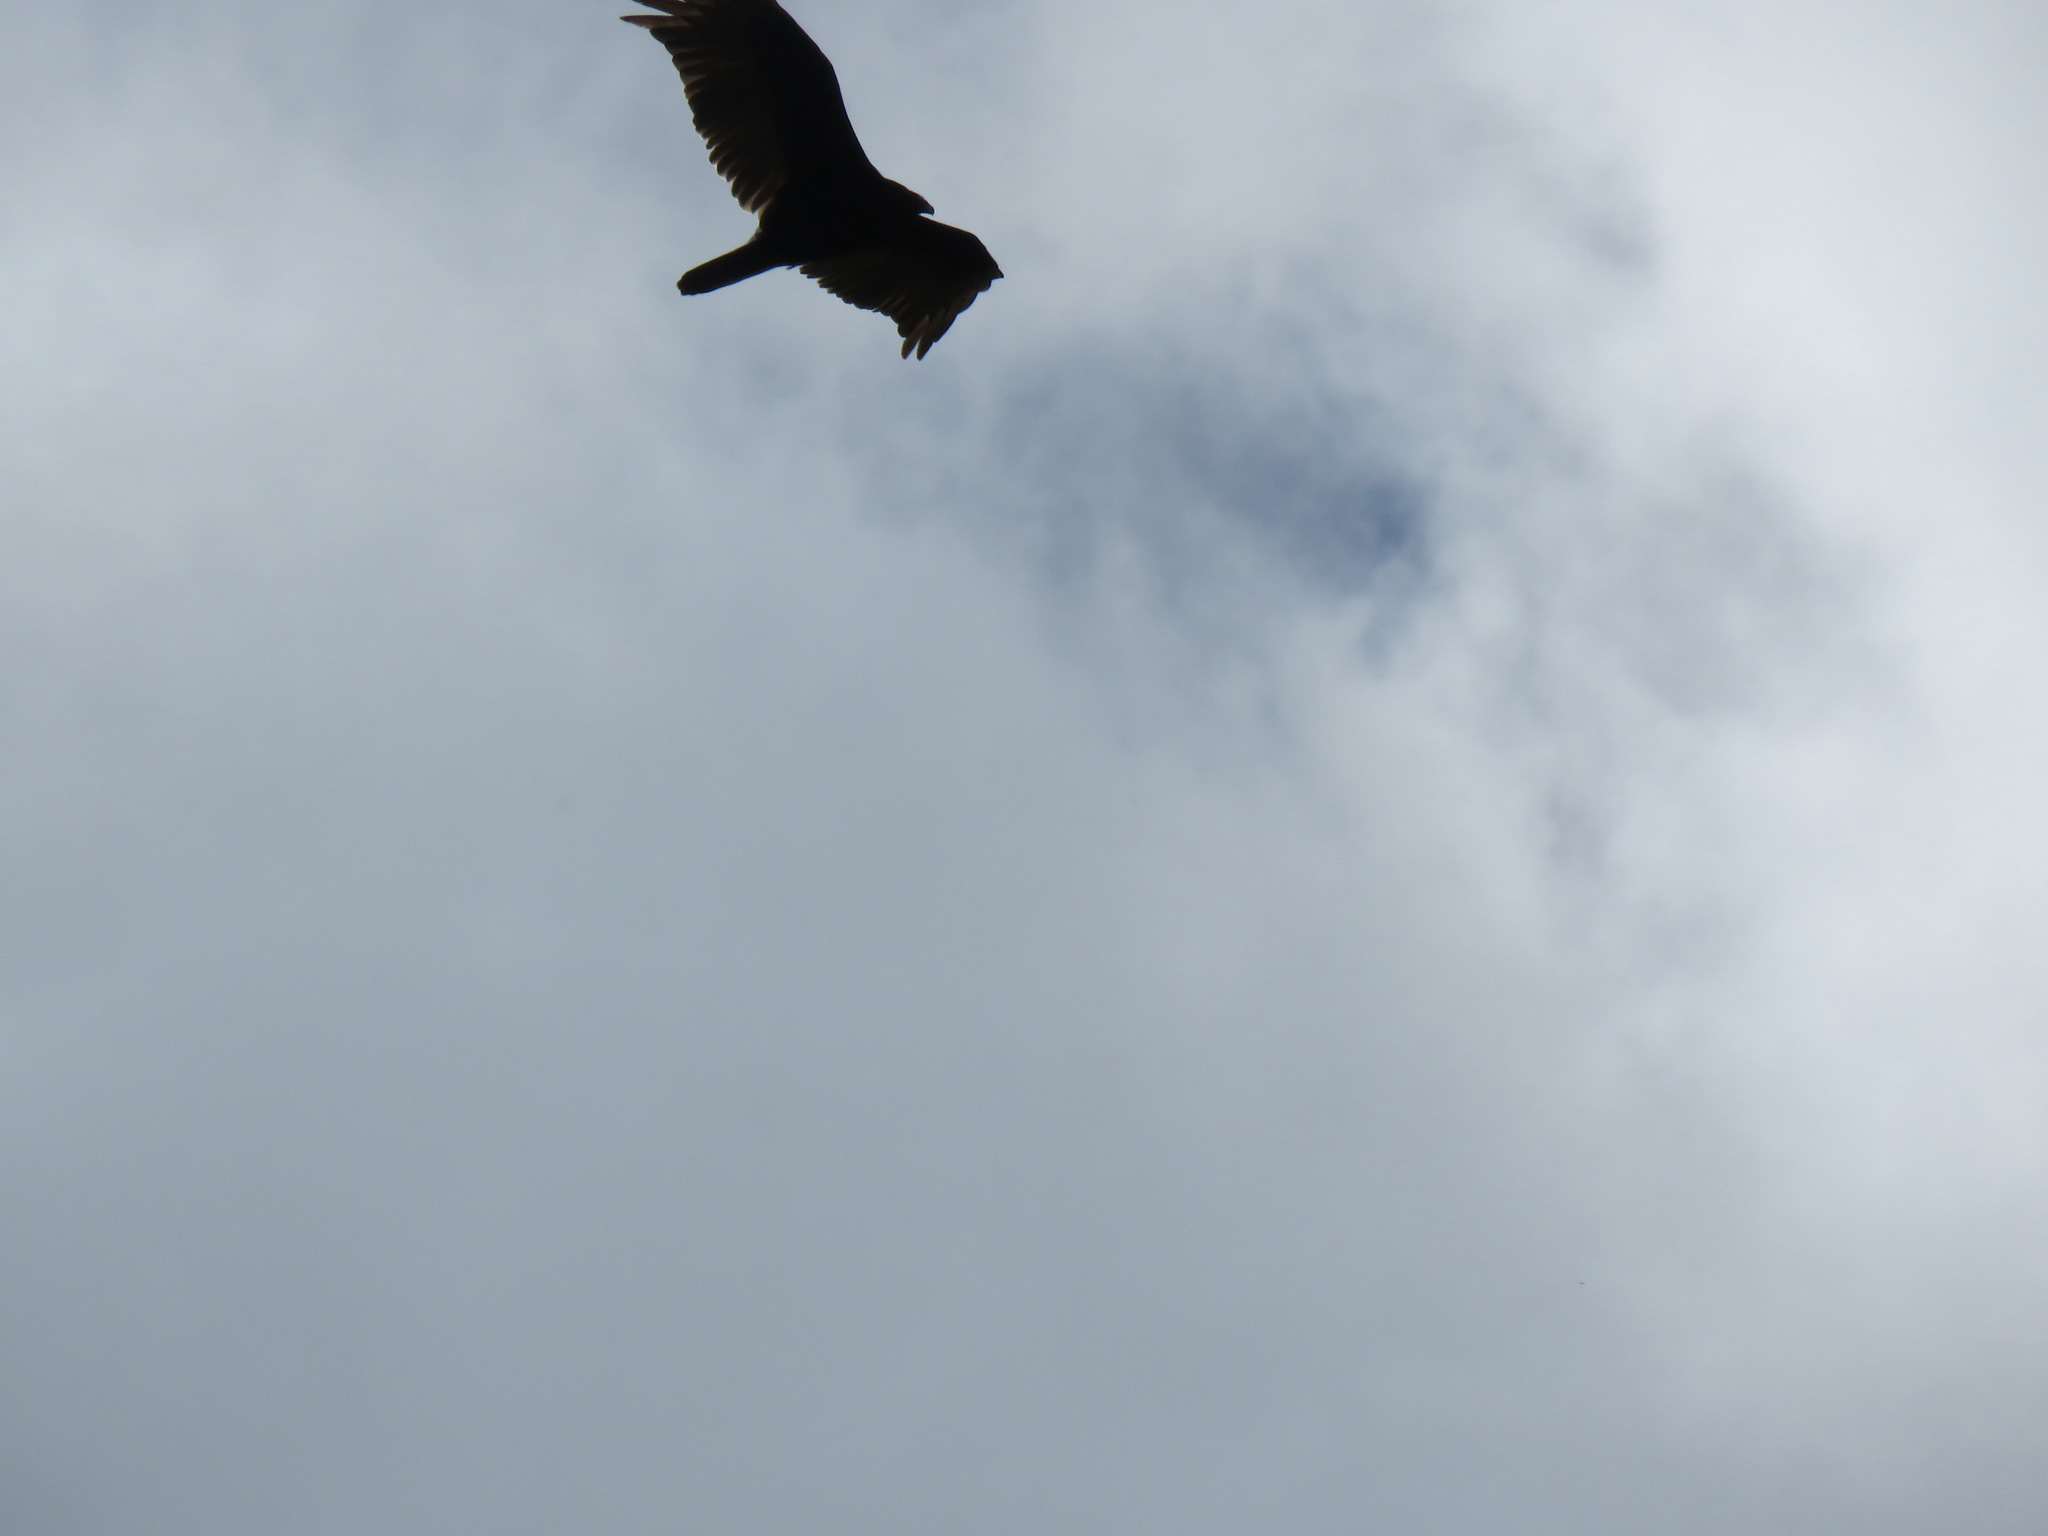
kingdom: Animalia
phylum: Chordata
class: Aves
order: Accipitriformes
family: Cathartidae
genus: Cathartes
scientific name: Cathartes aura
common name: Turkey vulture
